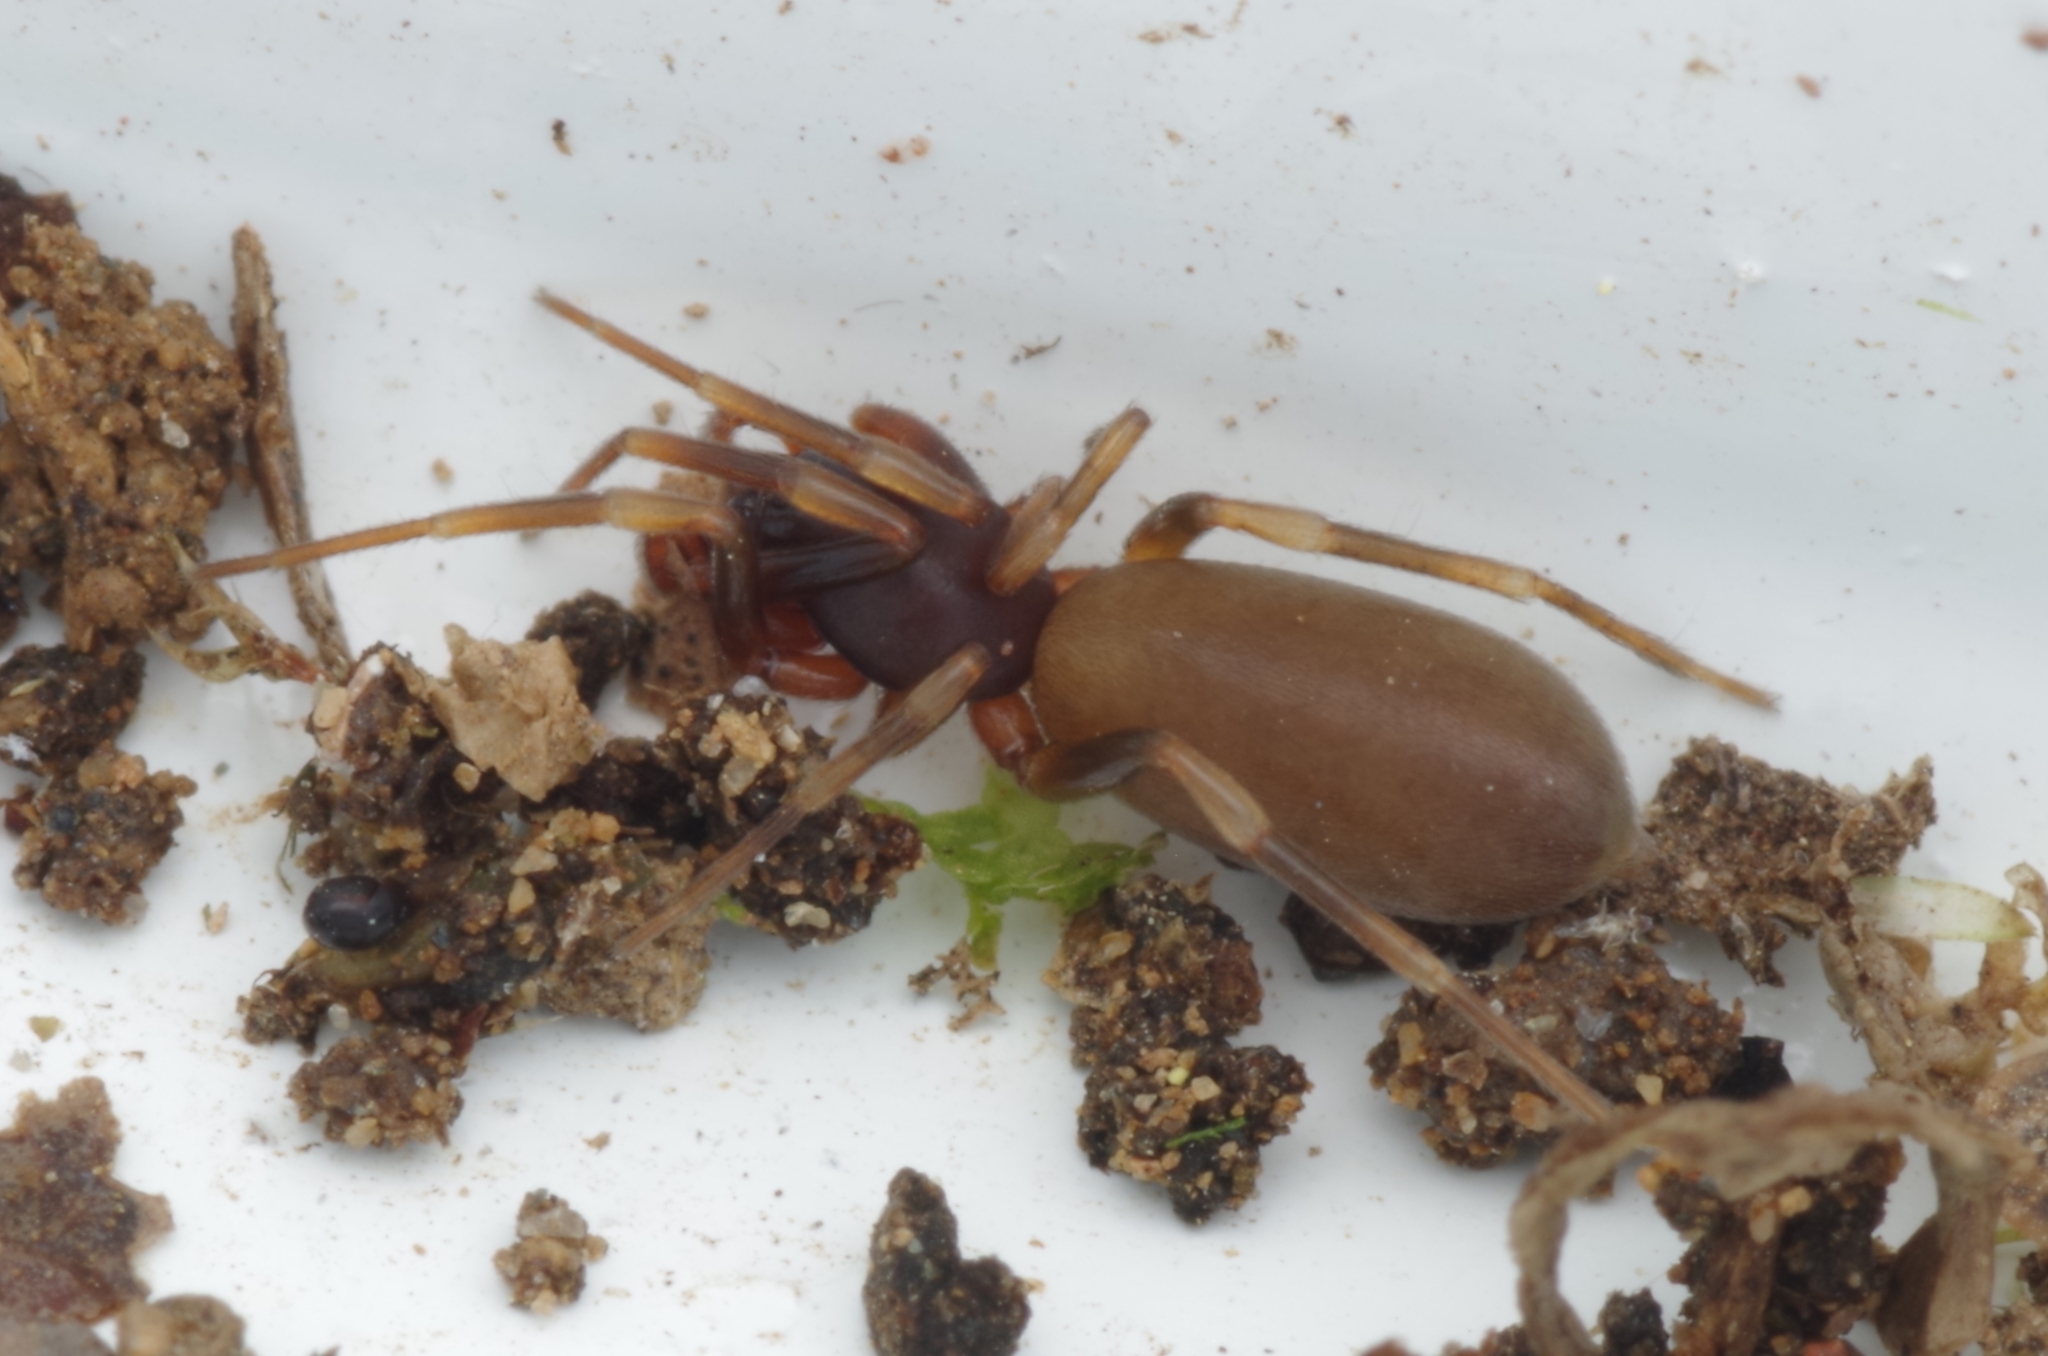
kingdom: Animalia
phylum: Arthropoda
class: Arachnida
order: Araneae
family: Dysderidae
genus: Harpactea
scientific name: Harpactea hombergi
